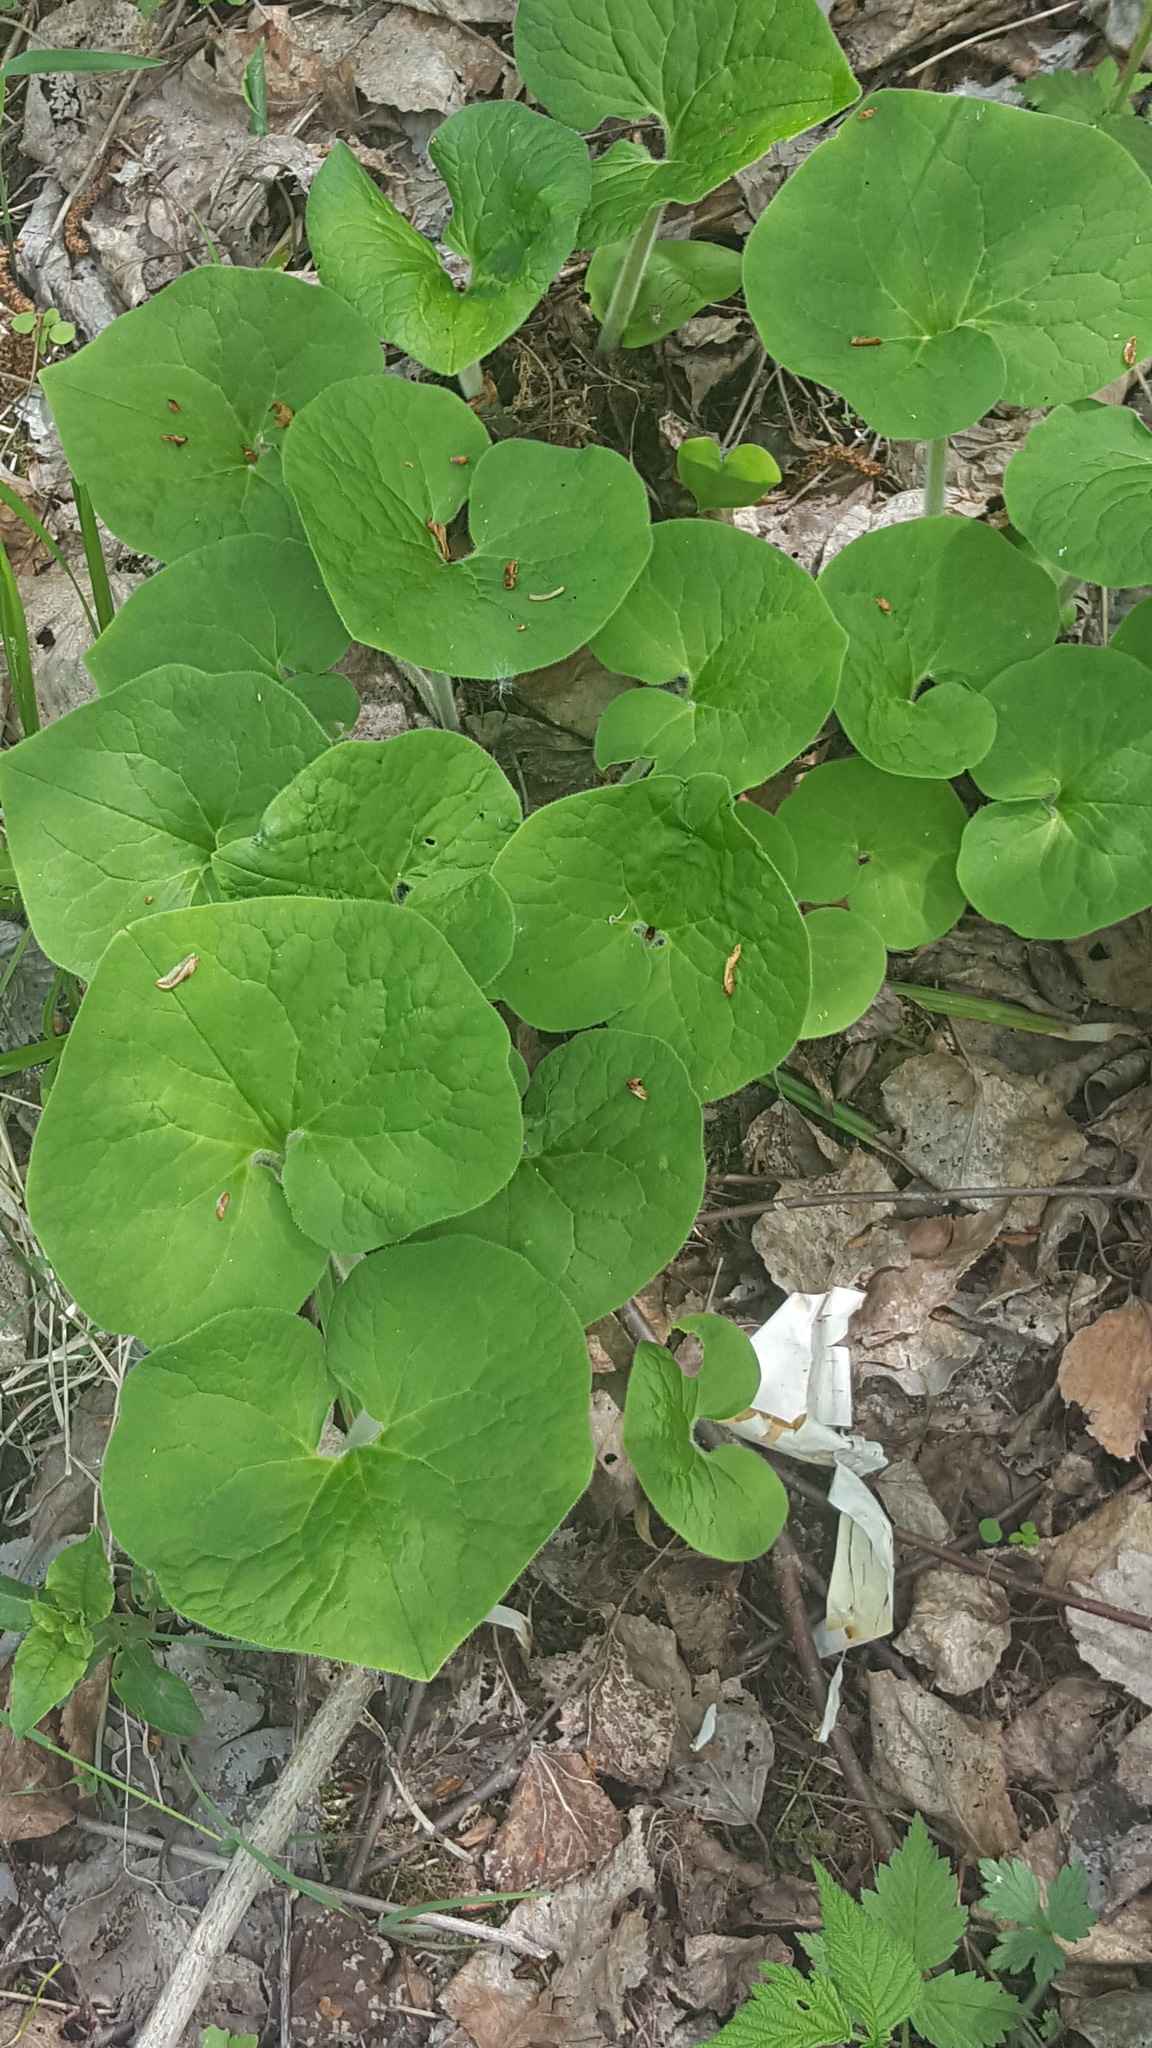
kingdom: Plantae
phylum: Tracheophyta
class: Magnoliopsida
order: Piperales
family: Aristolochiaceae
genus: Asarum
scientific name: Asarum canadense
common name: Wild ginger
